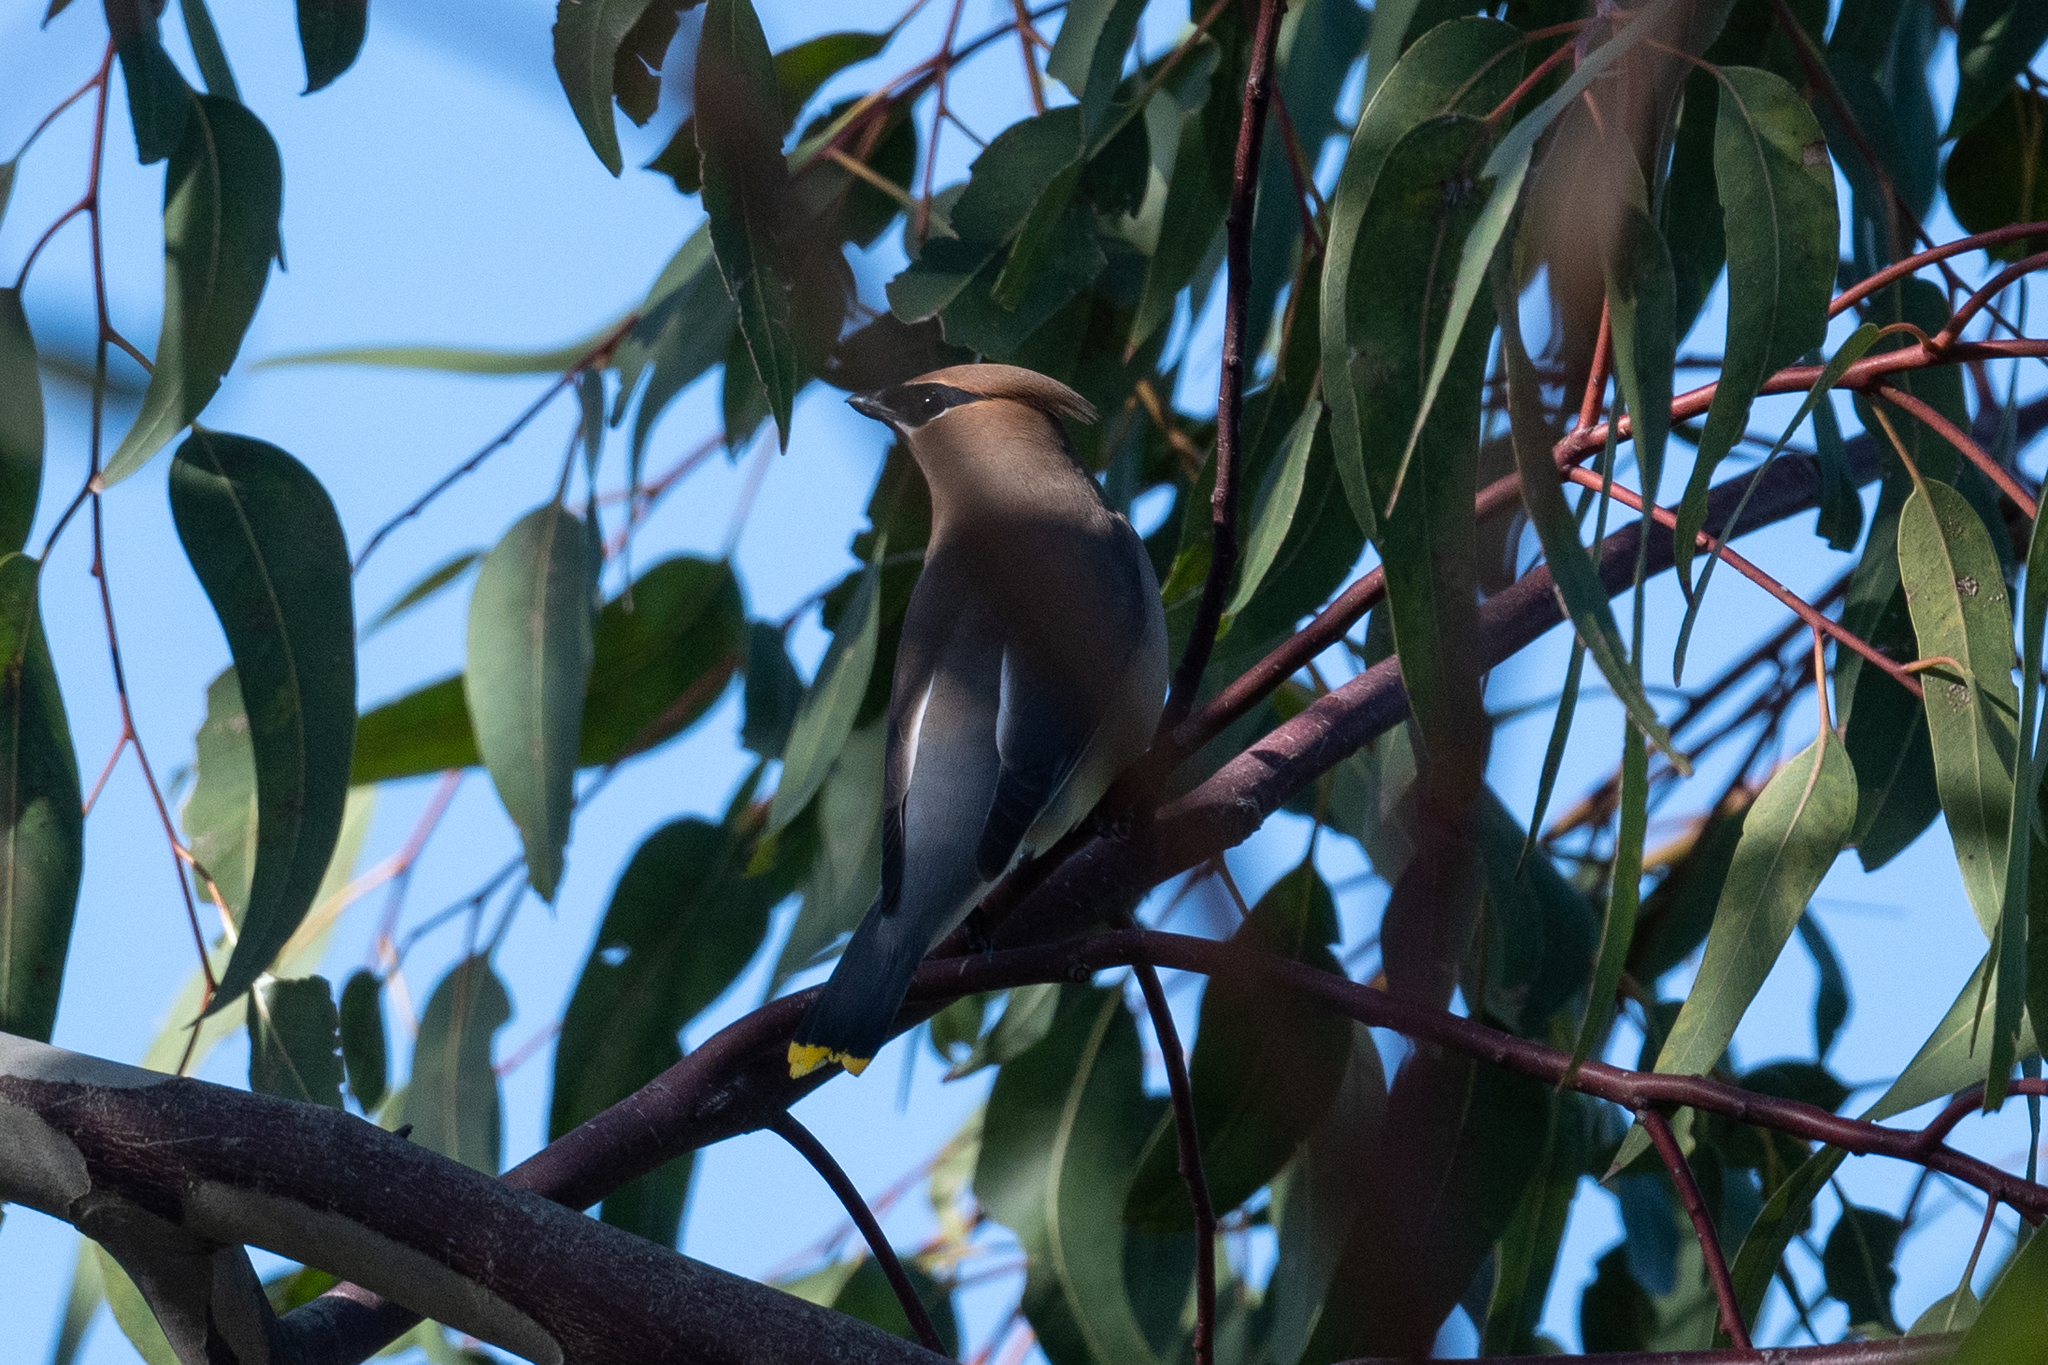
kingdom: Animalia
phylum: Chordata
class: Aves
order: Passeriformes
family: Bombycillidae
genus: Bombycilla
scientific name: Bombycilla cedrorum
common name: Cedar waxwing
